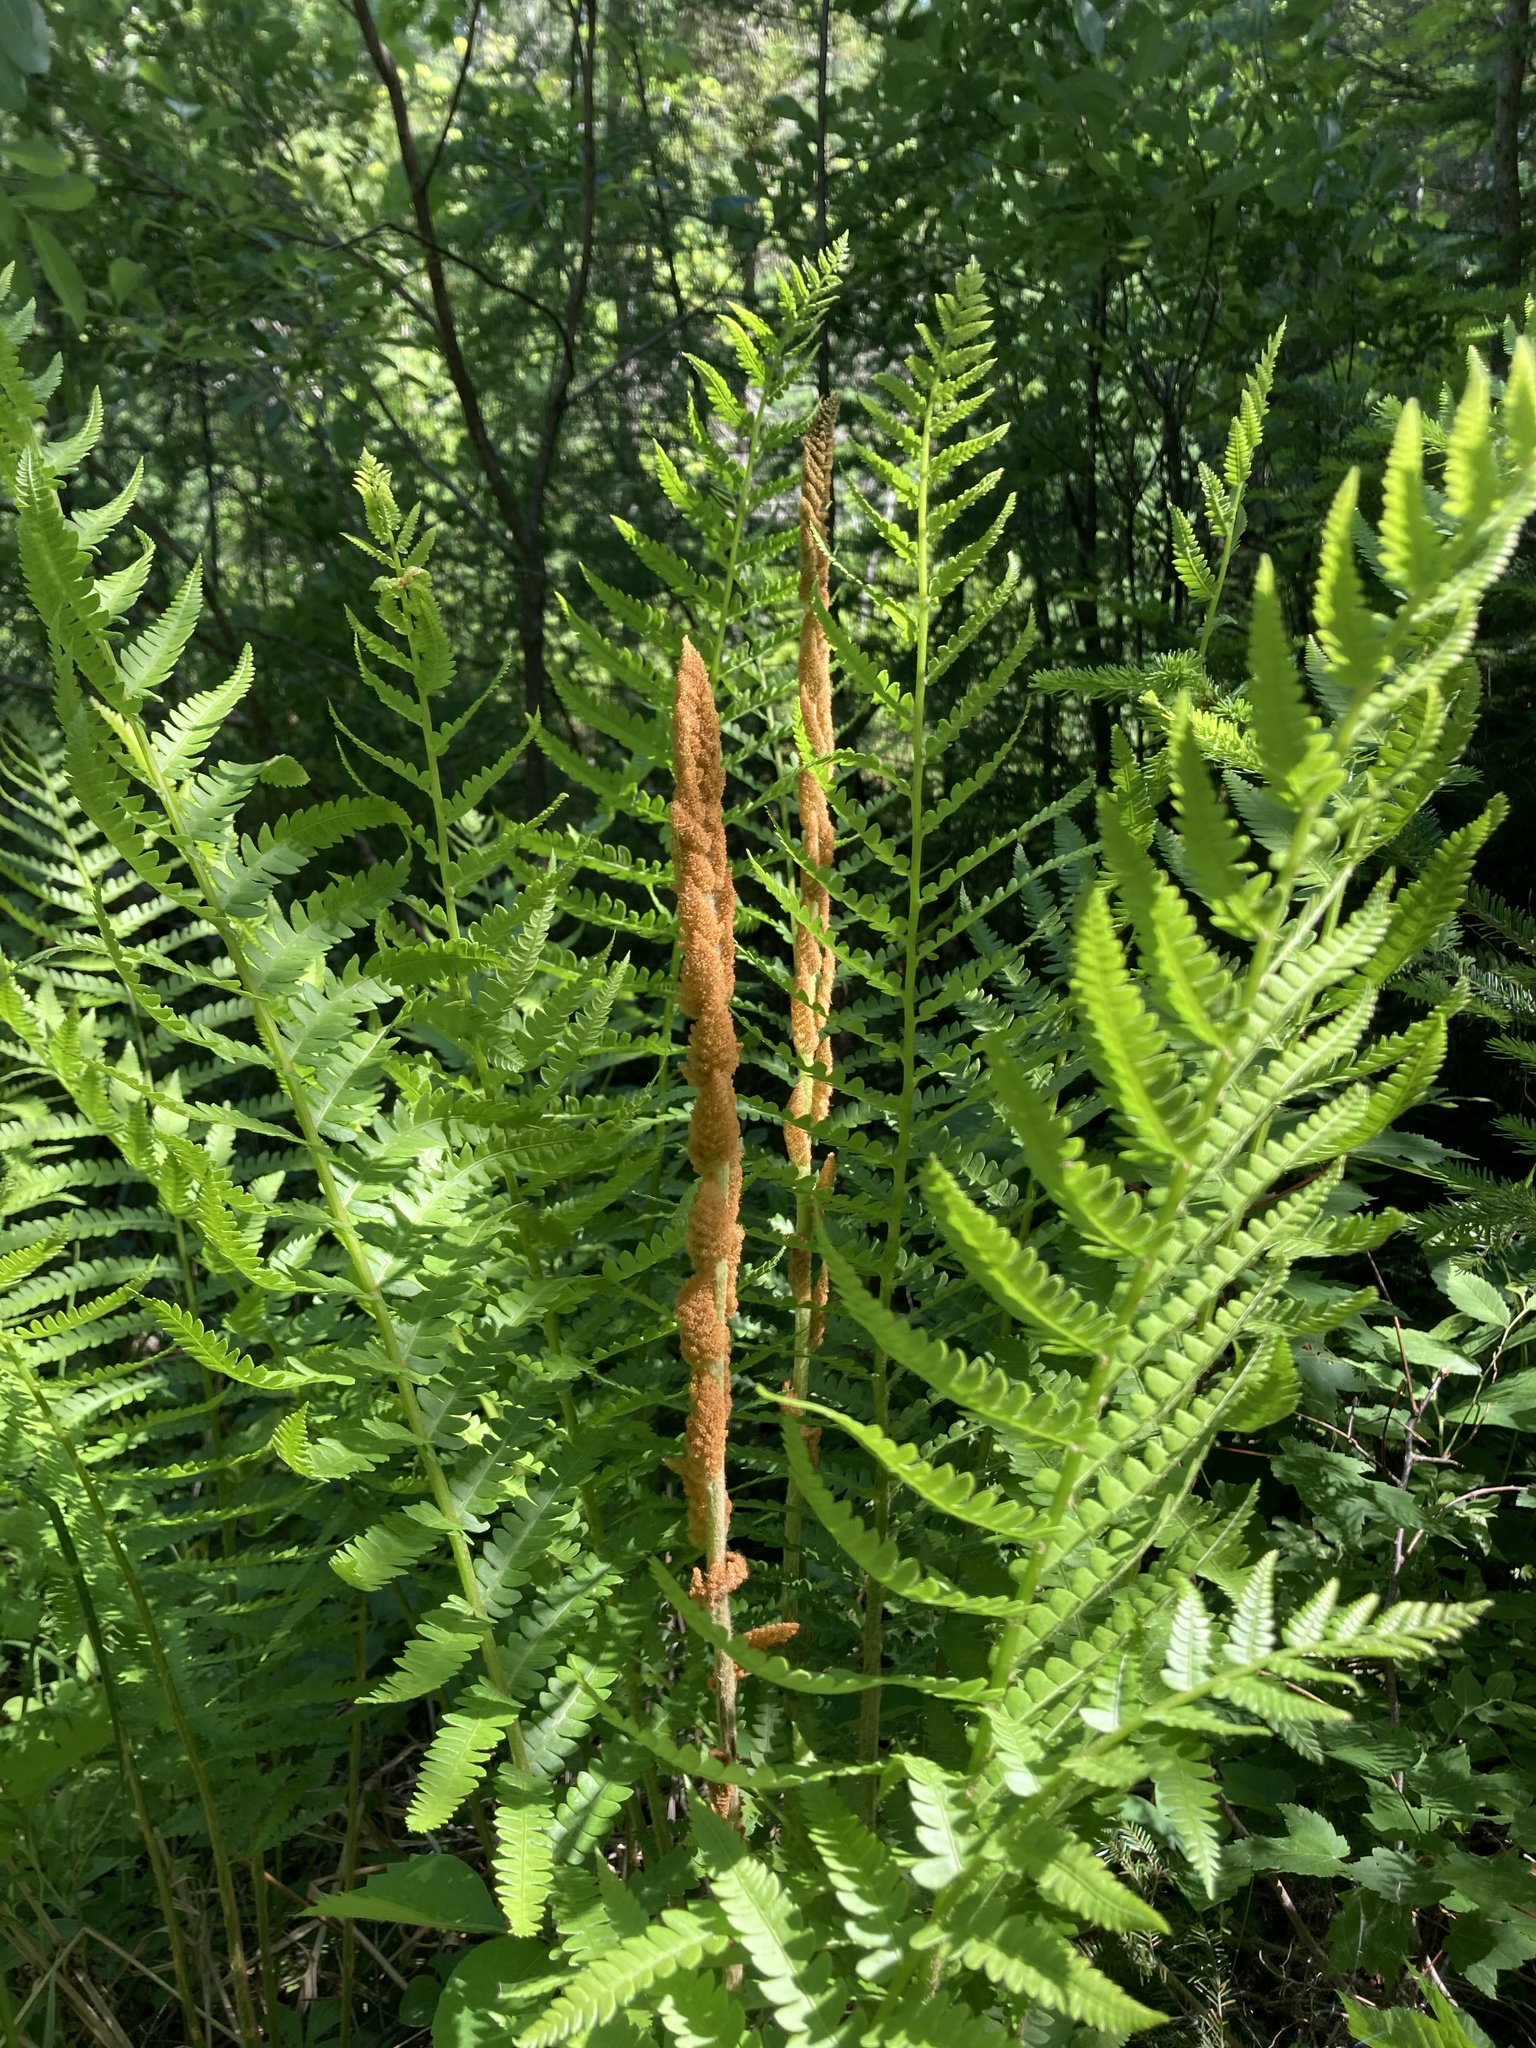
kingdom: Plantae
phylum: Tracheophyta
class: Polypodiopsida
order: Osmundales
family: Osmundaceae
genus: Osmundastrum
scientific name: Osmundastrum cinnamomeum
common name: Cinnamon fern
